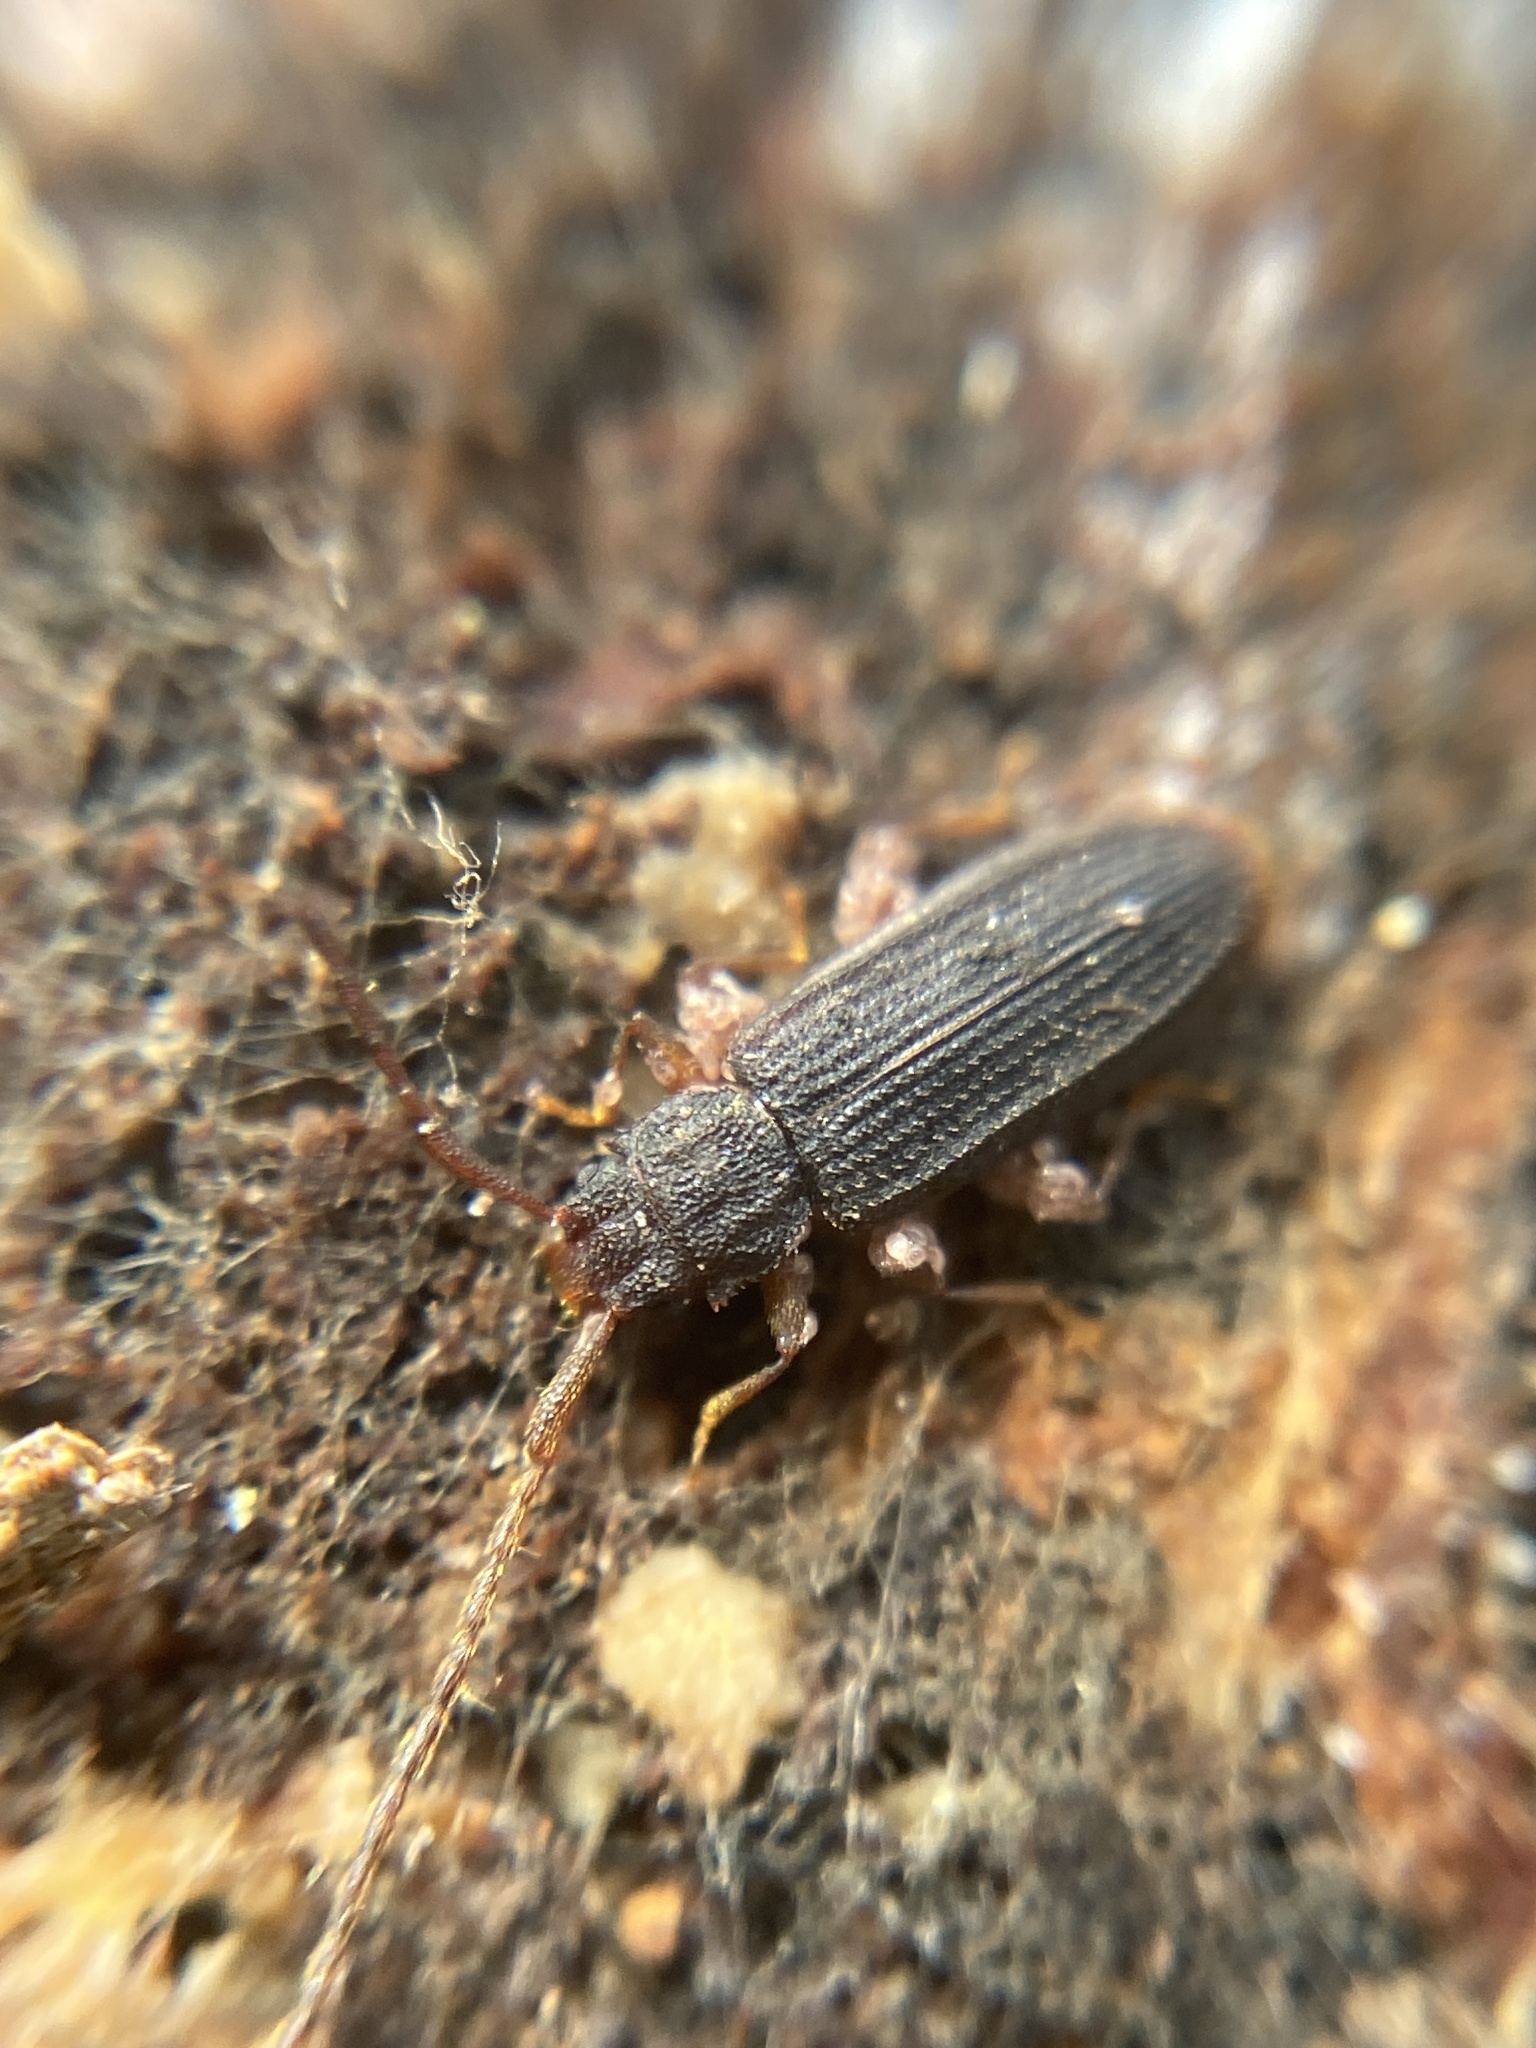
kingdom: Animalia
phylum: Arthropoda
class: Insecta
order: Coleoptera
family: Silvanidae
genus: Uleiota
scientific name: Uleiota planatus
